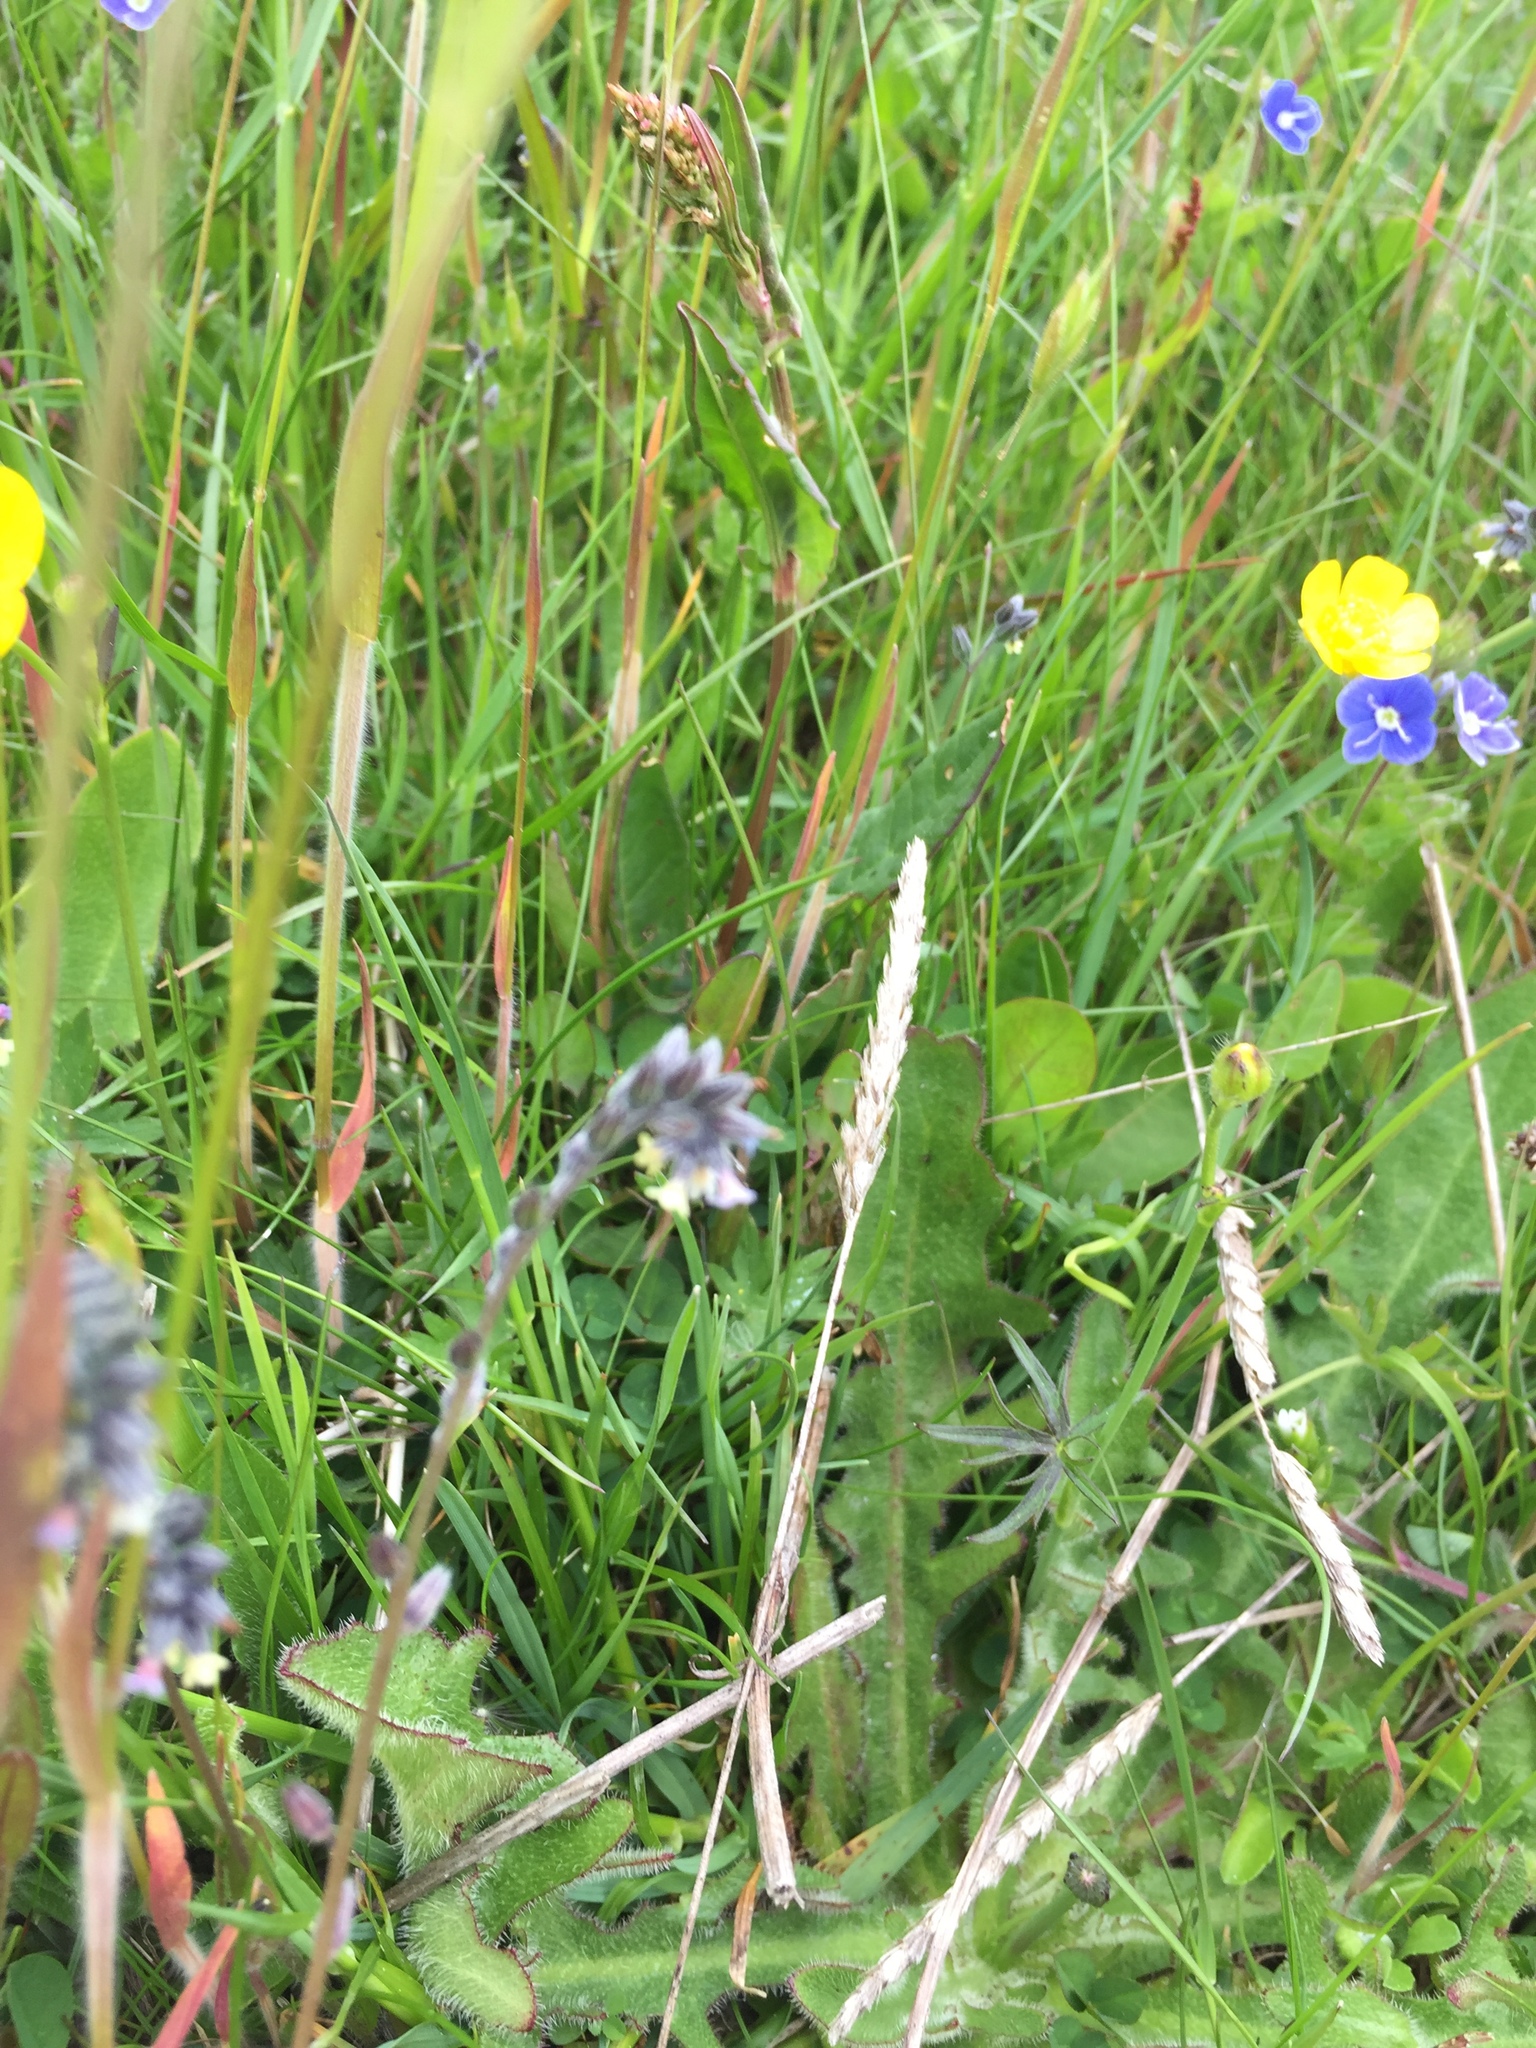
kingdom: Plantae
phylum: Tracheophyta
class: Magnoliopsida
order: Boraginales
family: Boraginaceae
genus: Myosotis
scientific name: Myosotis discolor
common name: Changing forget-me-not
